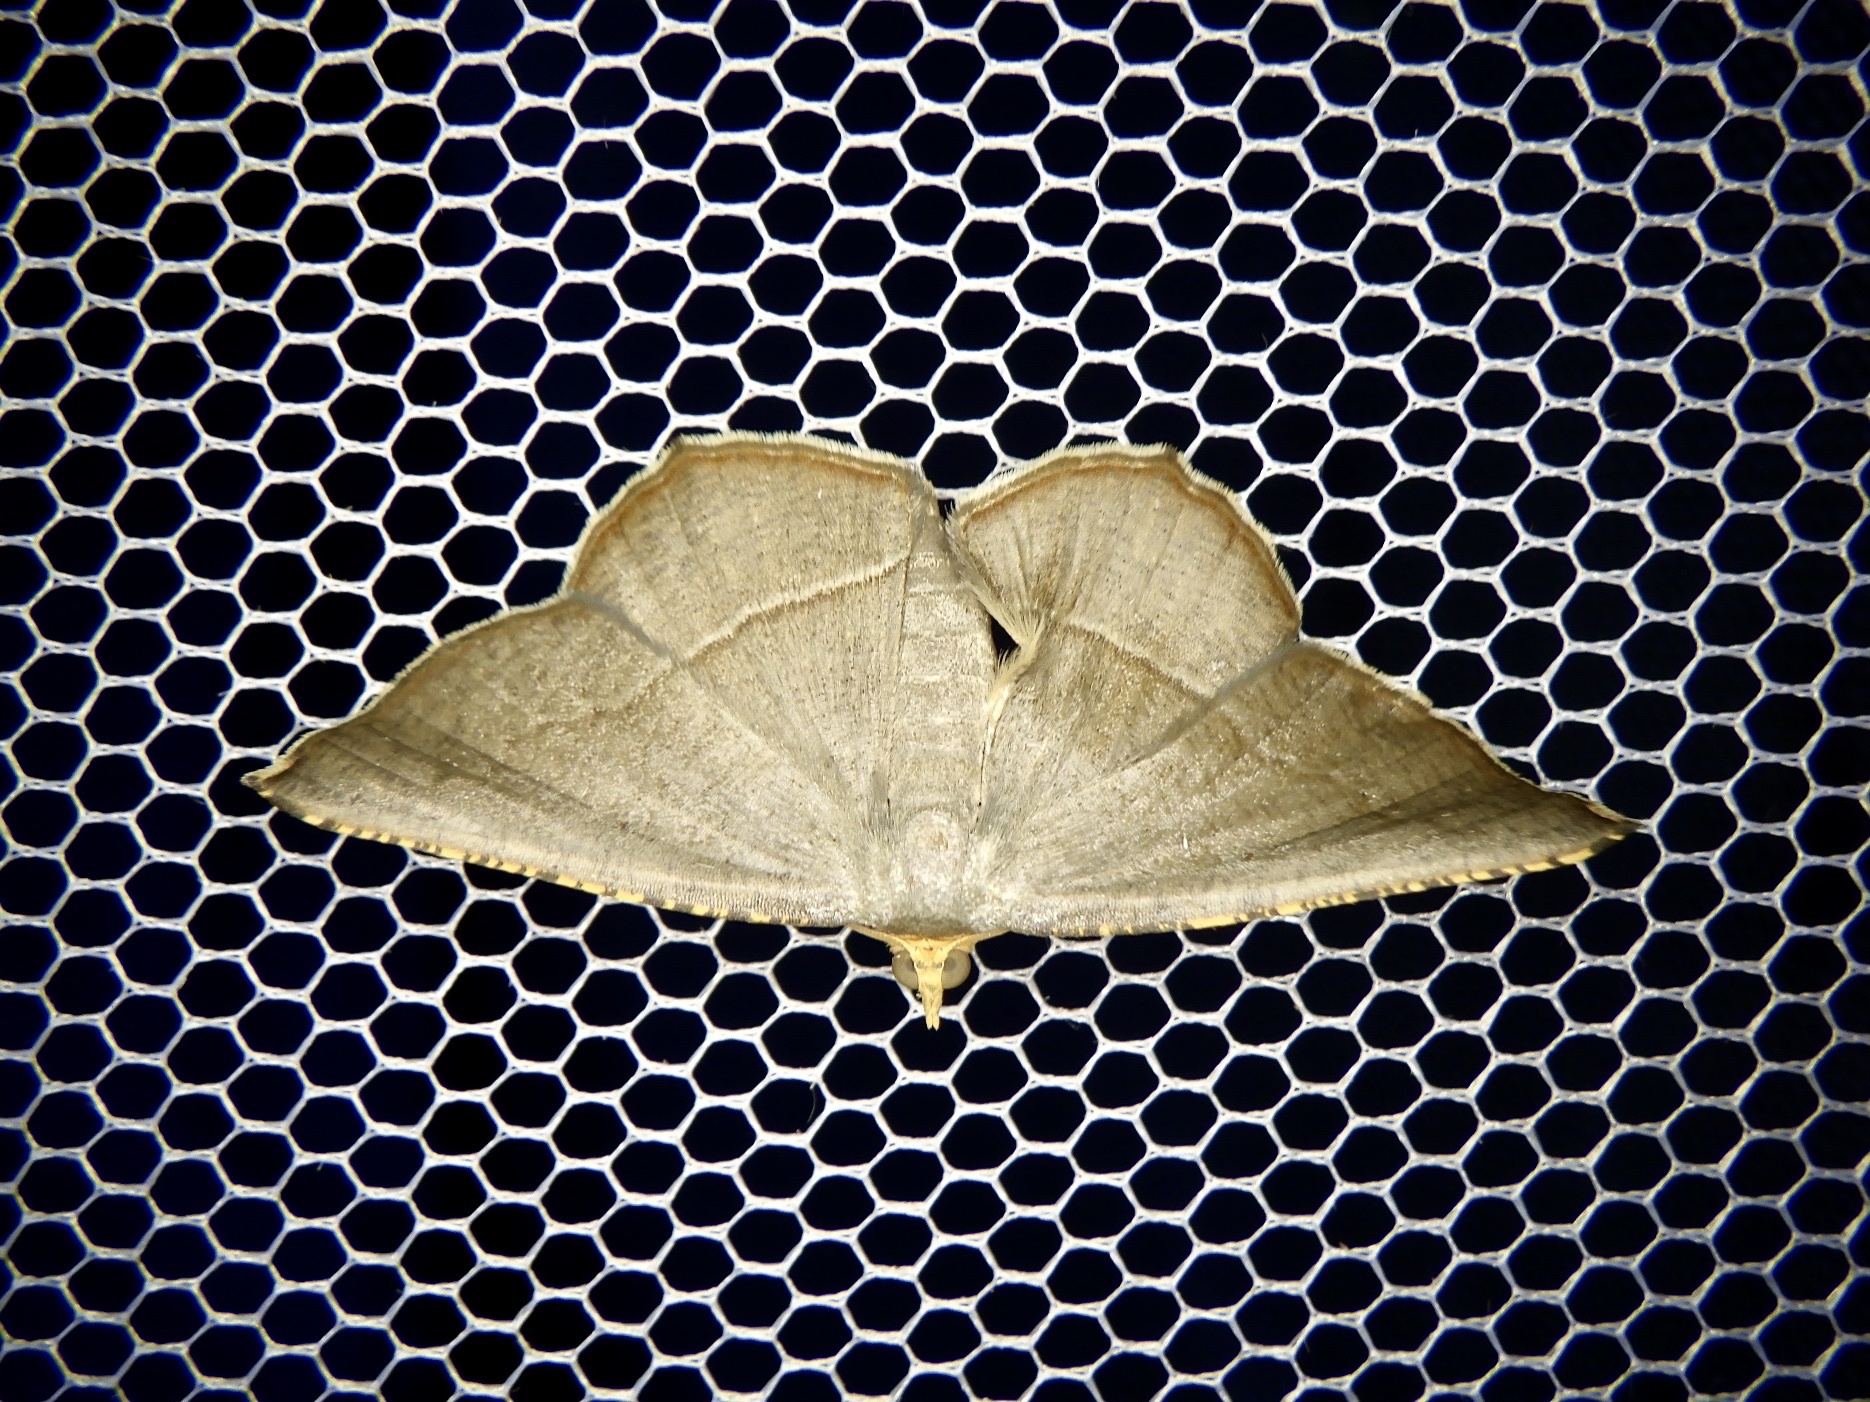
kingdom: Animalia
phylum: Arthropoda
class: Insecta
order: Lepidoptera
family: Geometridae
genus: Plesiomorpha
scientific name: Plesiomorpha flaviceps
